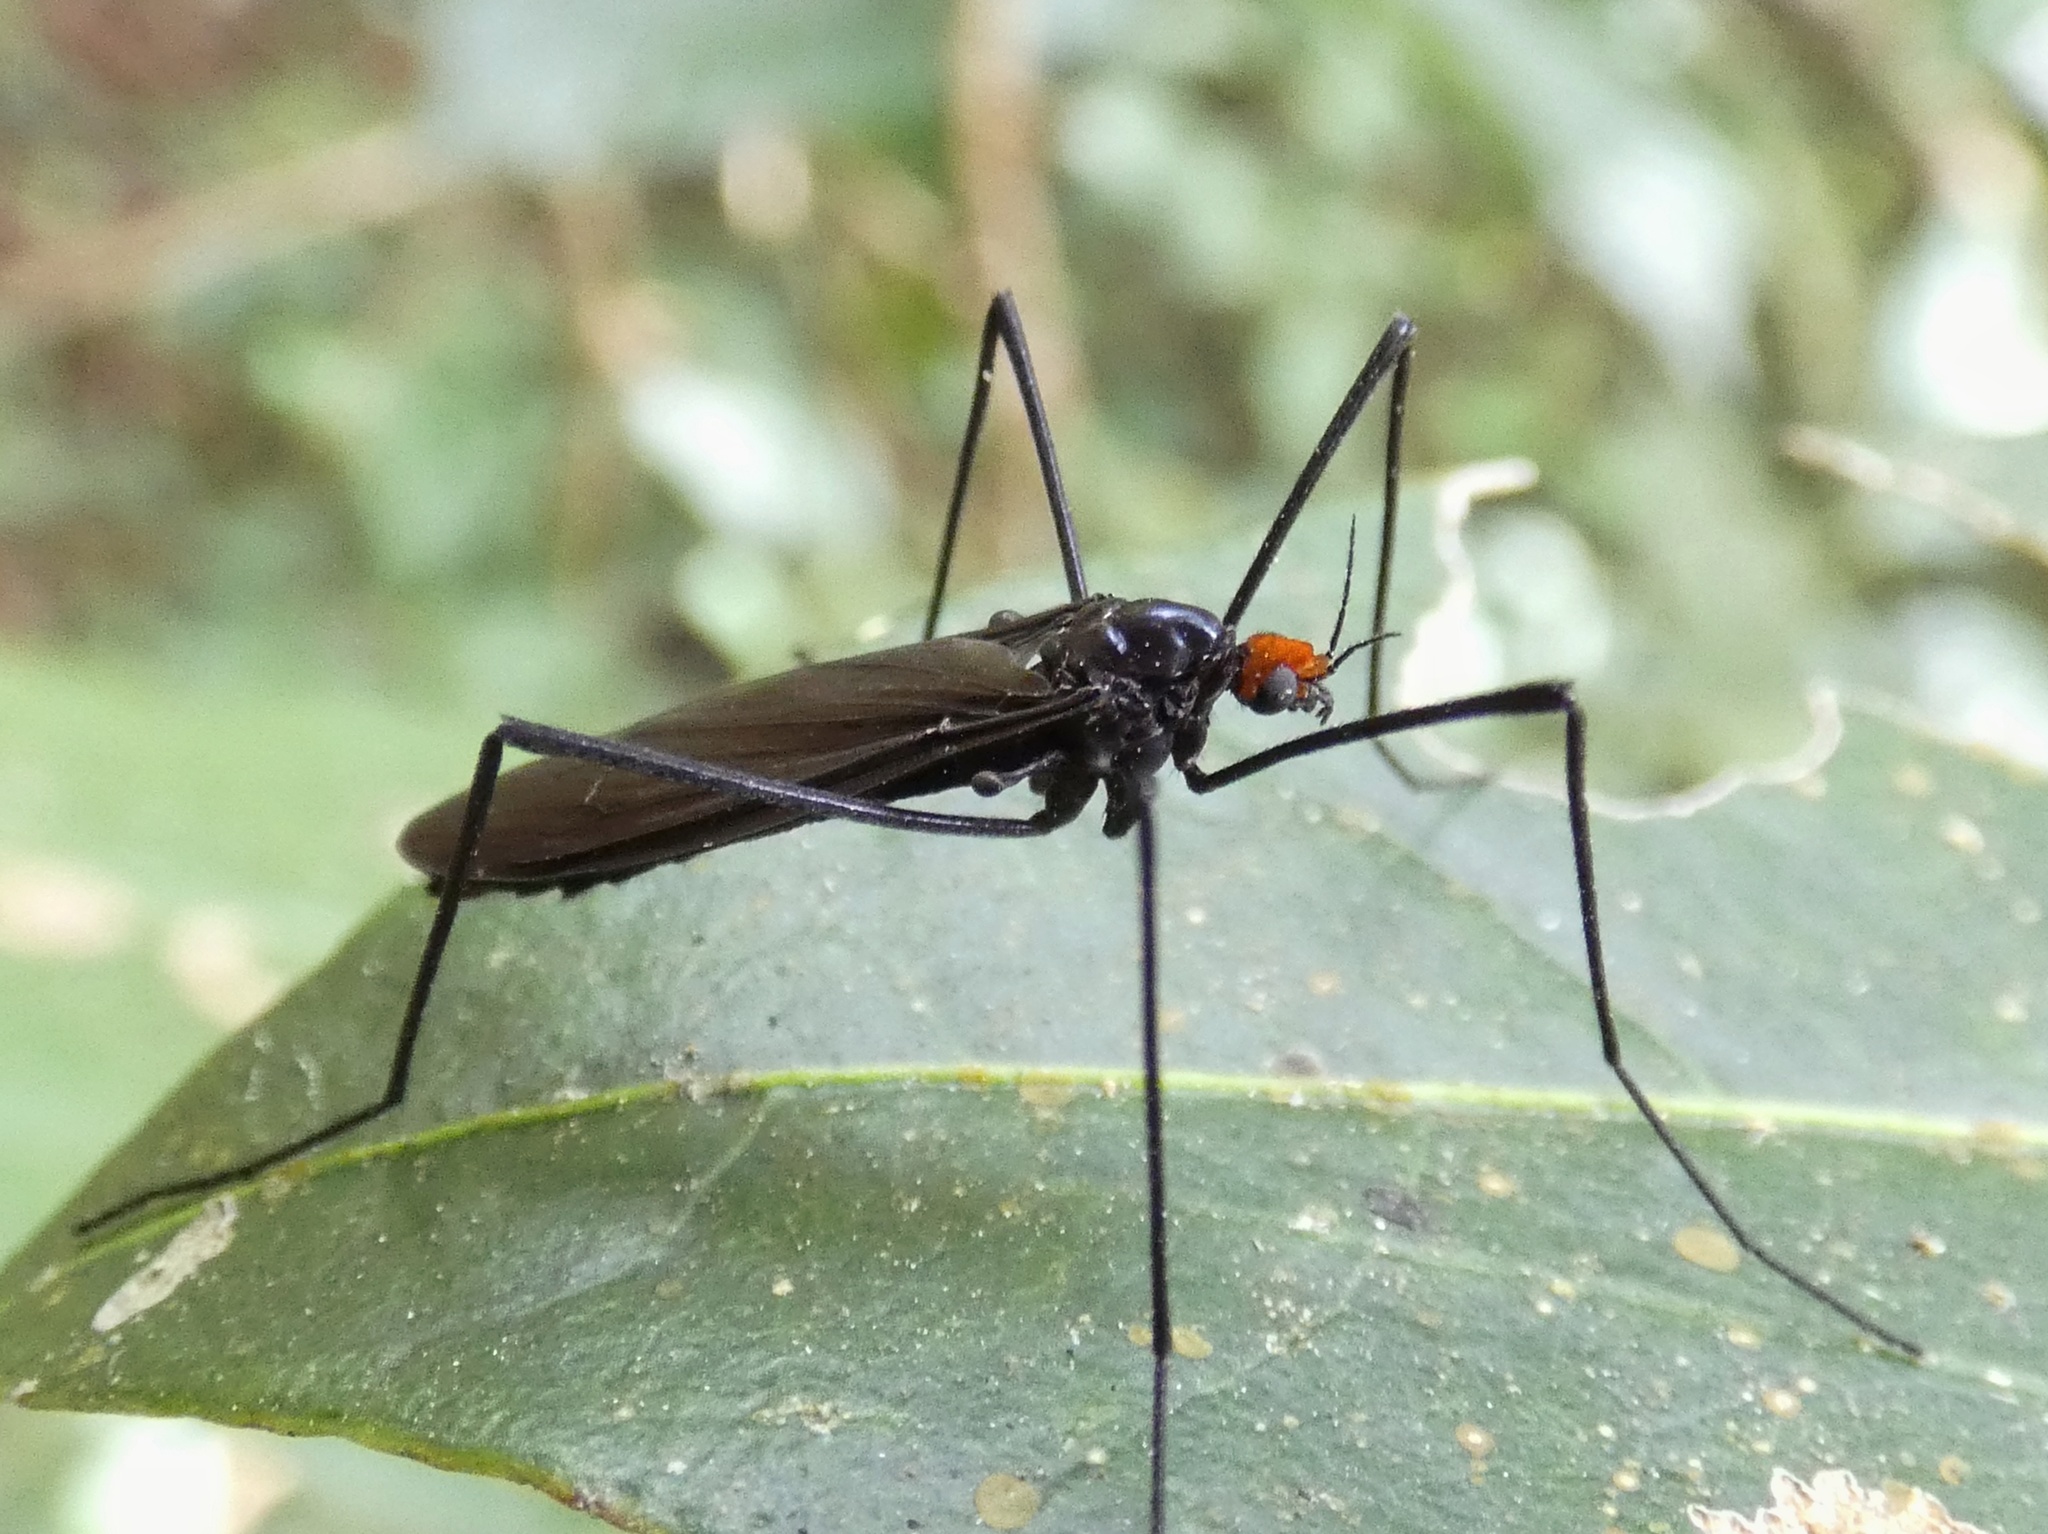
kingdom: Animalia
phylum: Arthropoda
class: Insecta
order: Diptera
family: Limoniidae
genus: Hexatoma
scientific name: Hexatoma lessepsi
